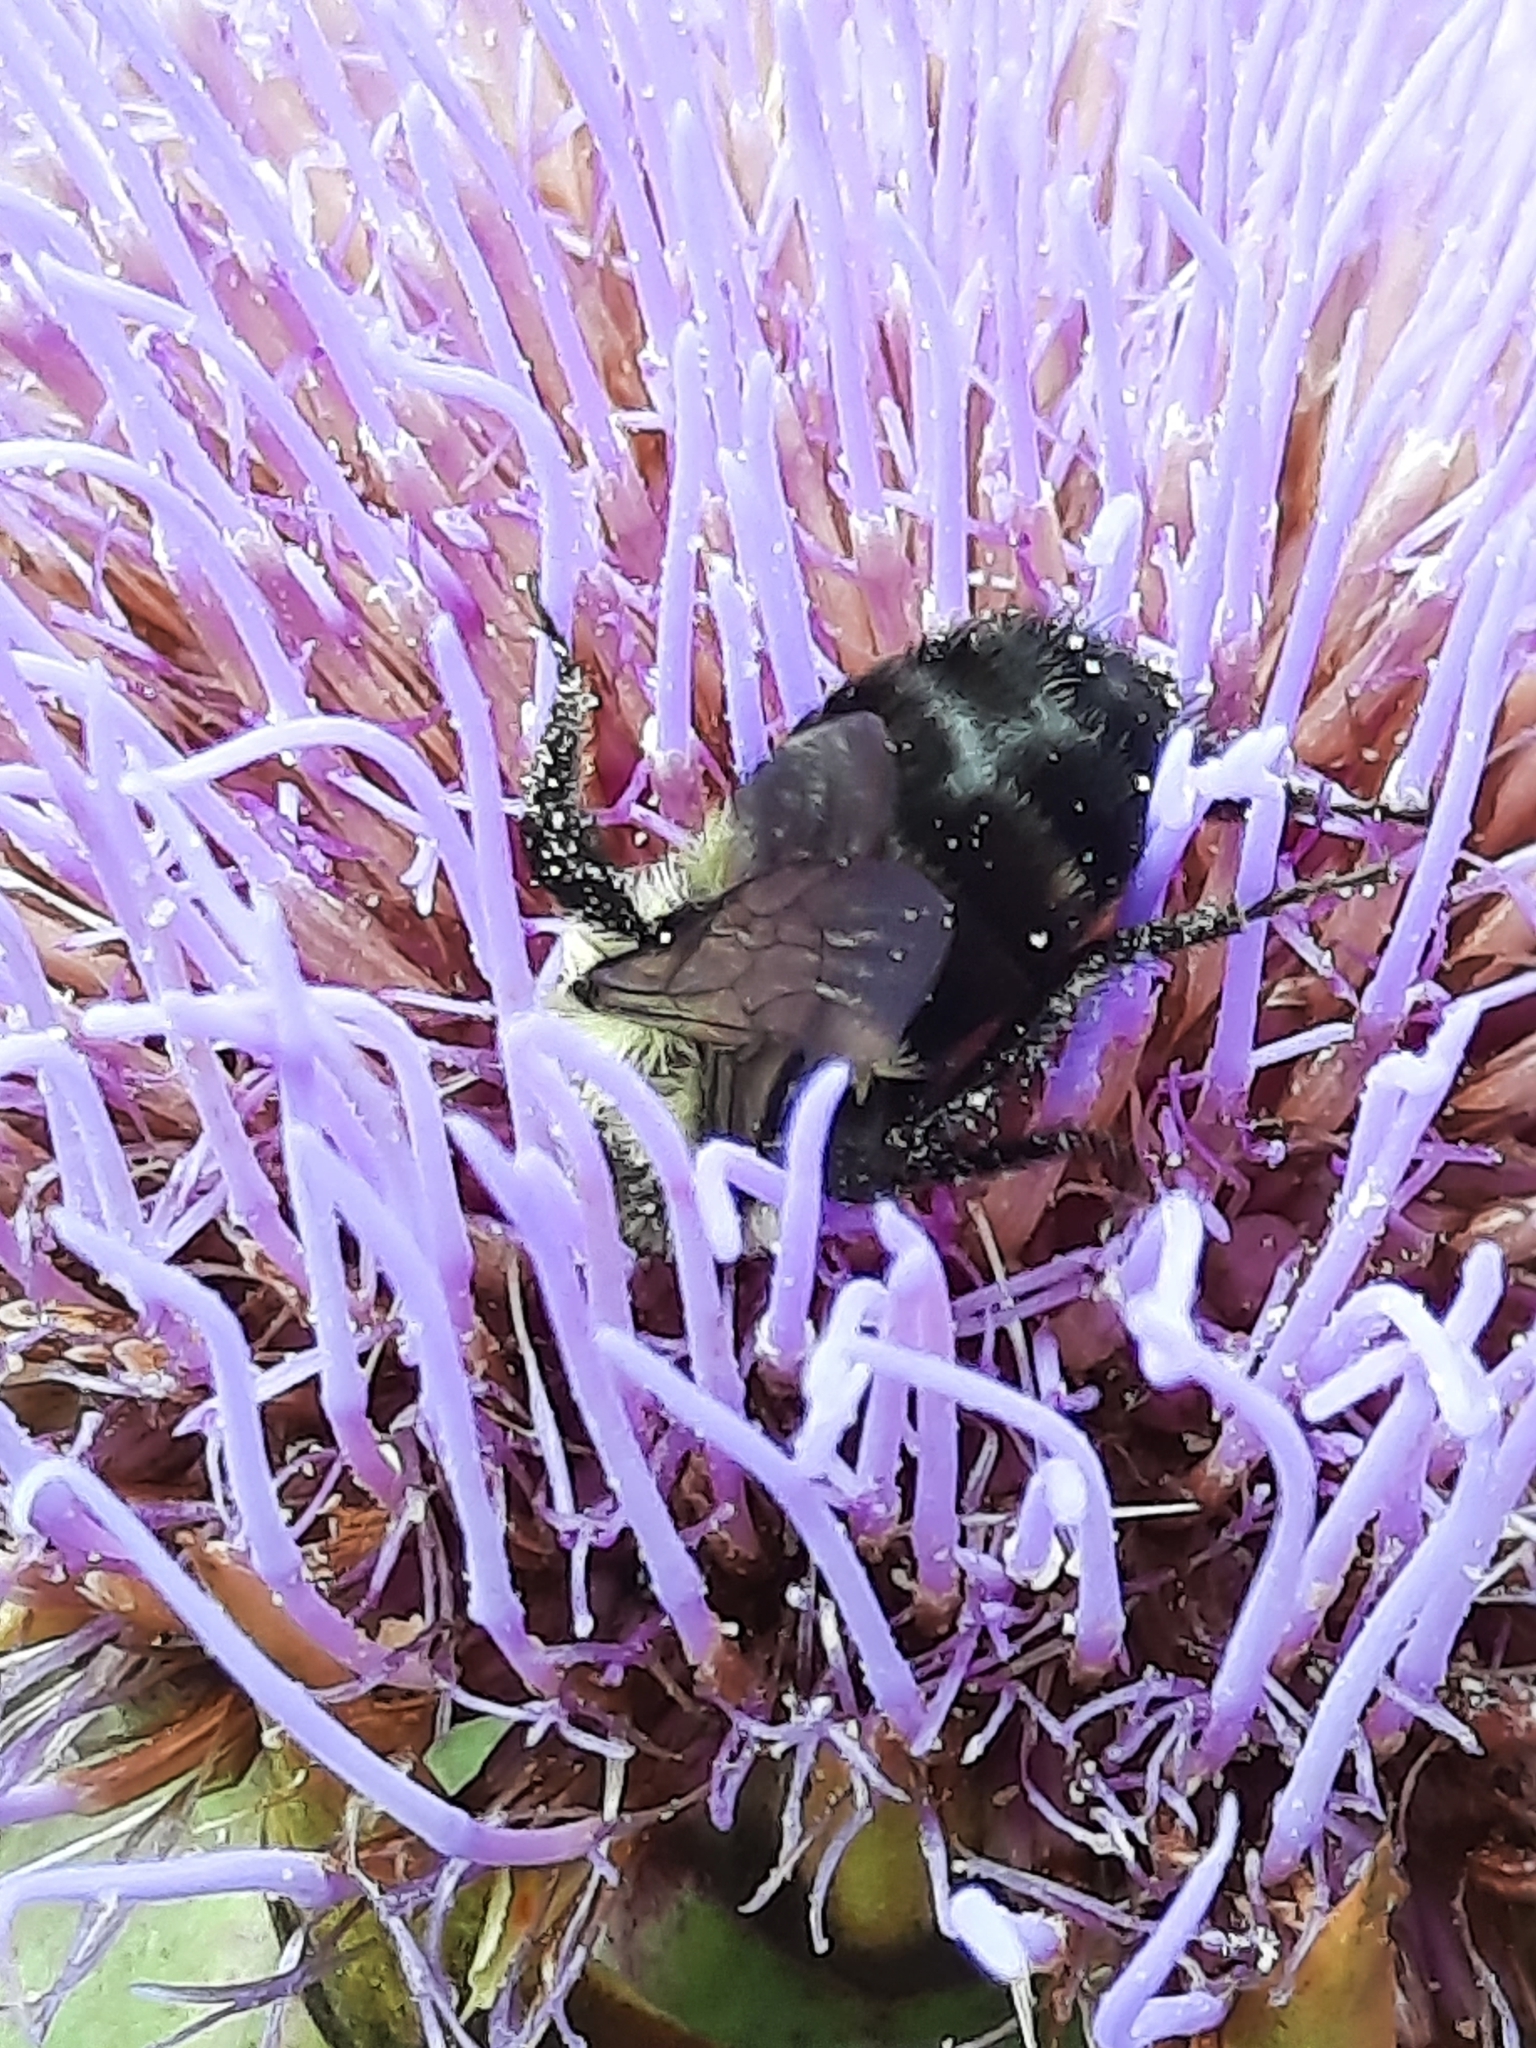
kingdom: Animalia
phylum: Arthropoda
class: Insecta
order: Hymenoptera
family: Apidae
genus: Bombus
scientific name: Bombus impatiens
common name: Common eastern bumble bee
